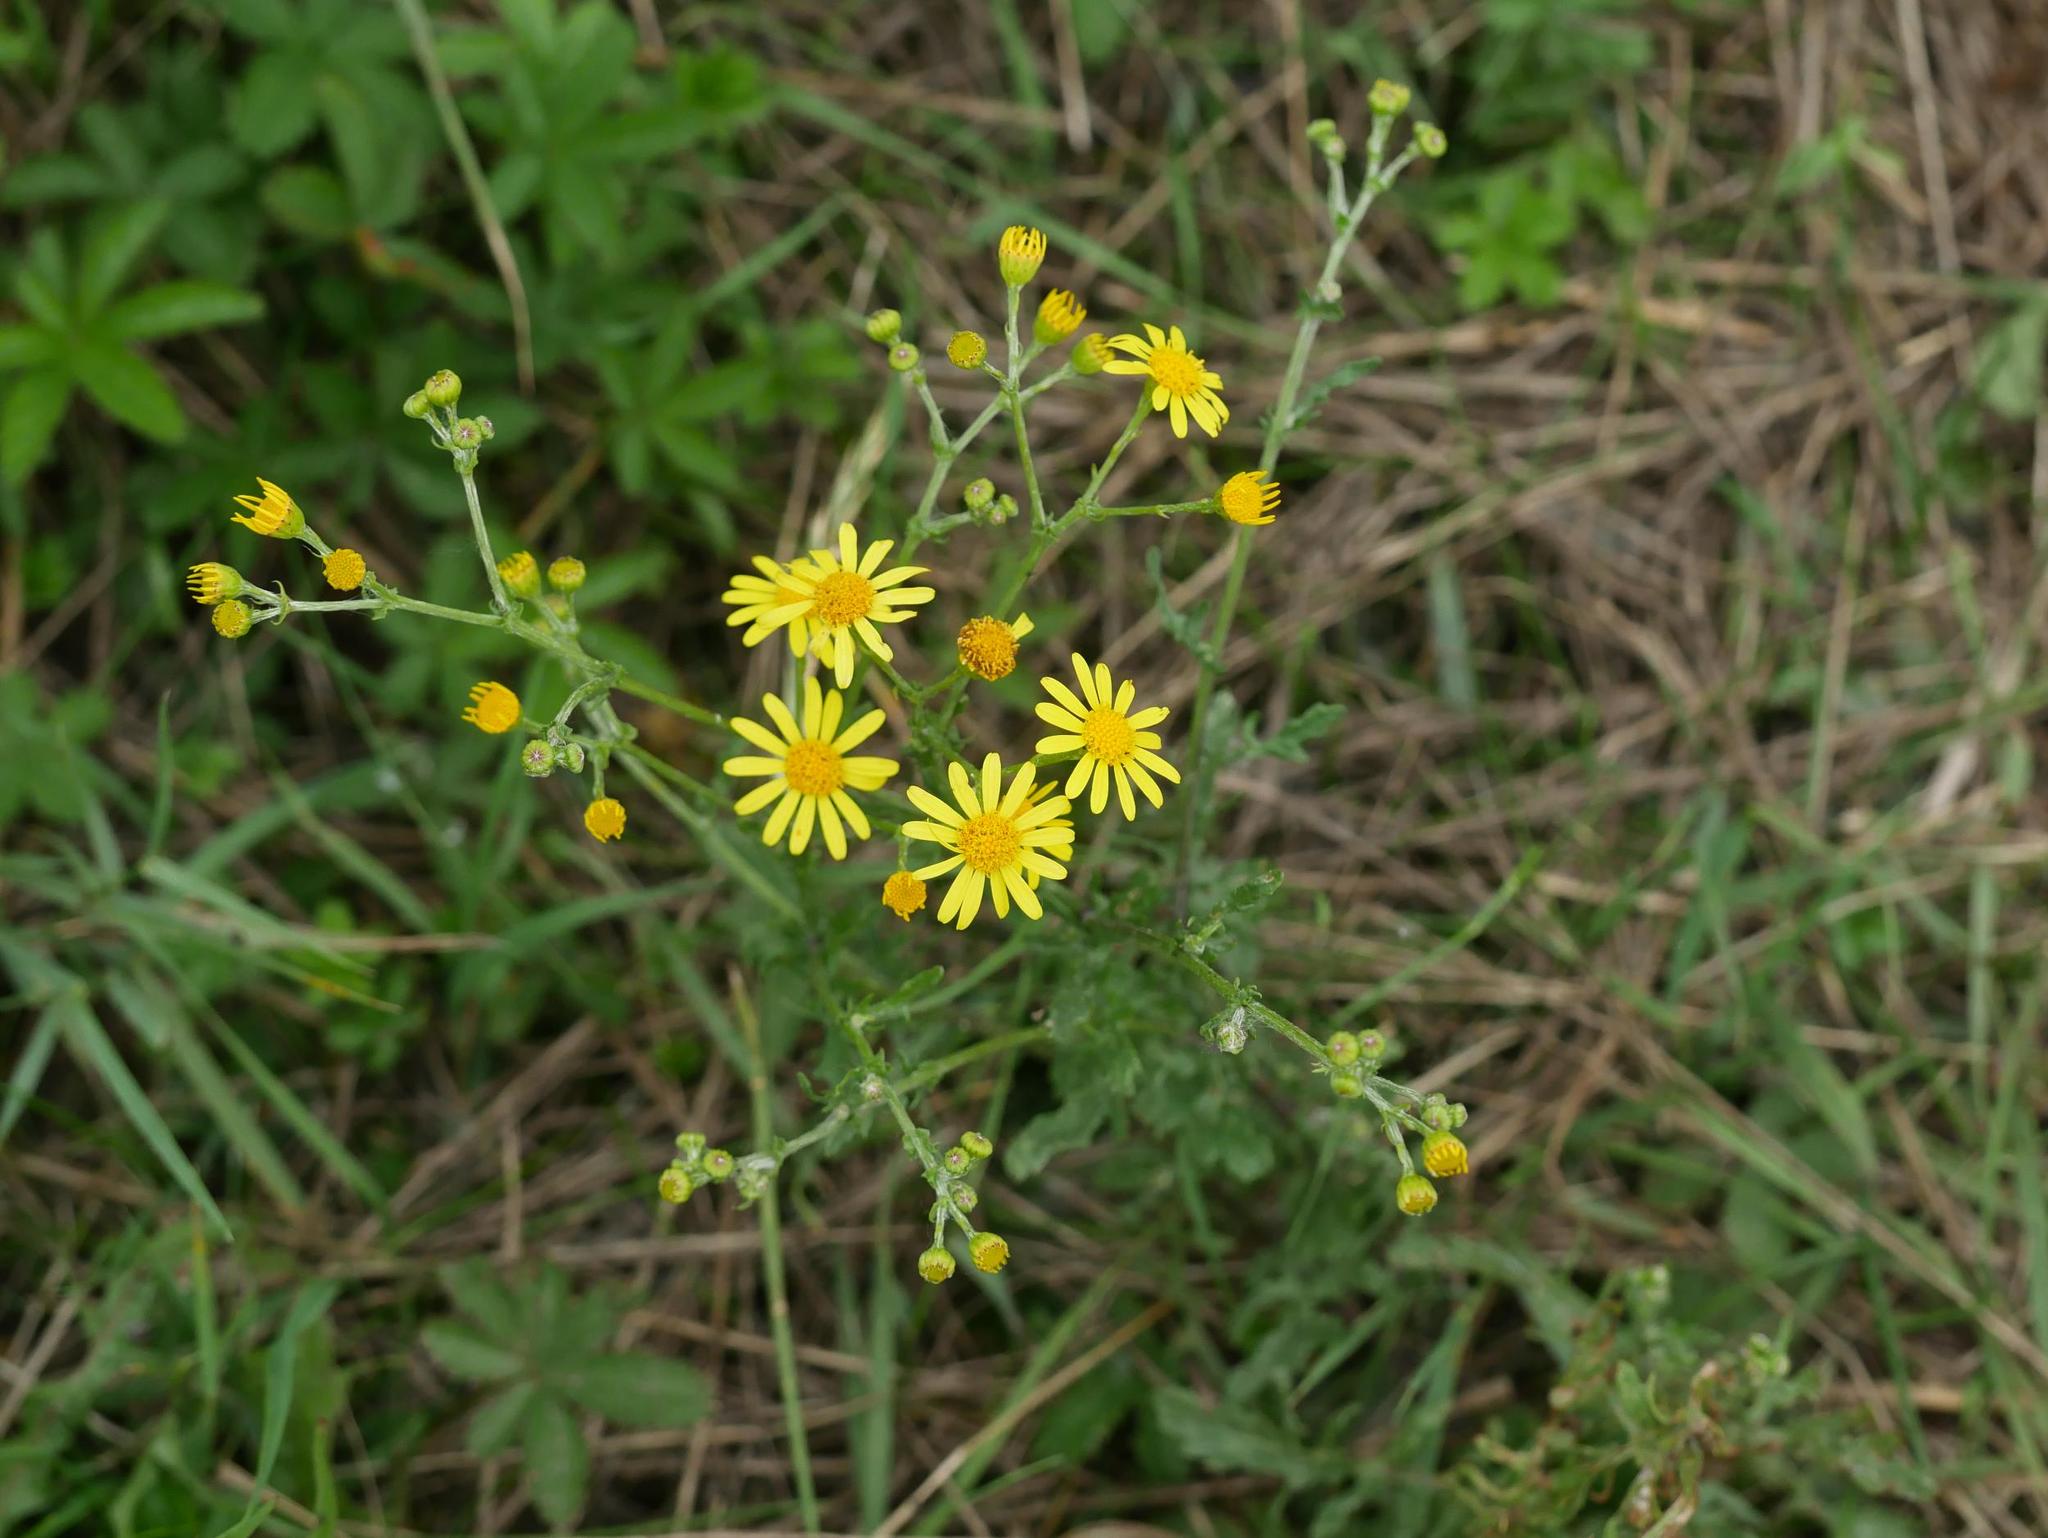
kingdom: Plantae
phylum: Tracheophyta
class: Magnoliopsida
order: Asterales
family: Asteraceae
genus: Jacobaea
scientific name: Jacobaea vulgaris
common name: Stinking willie
